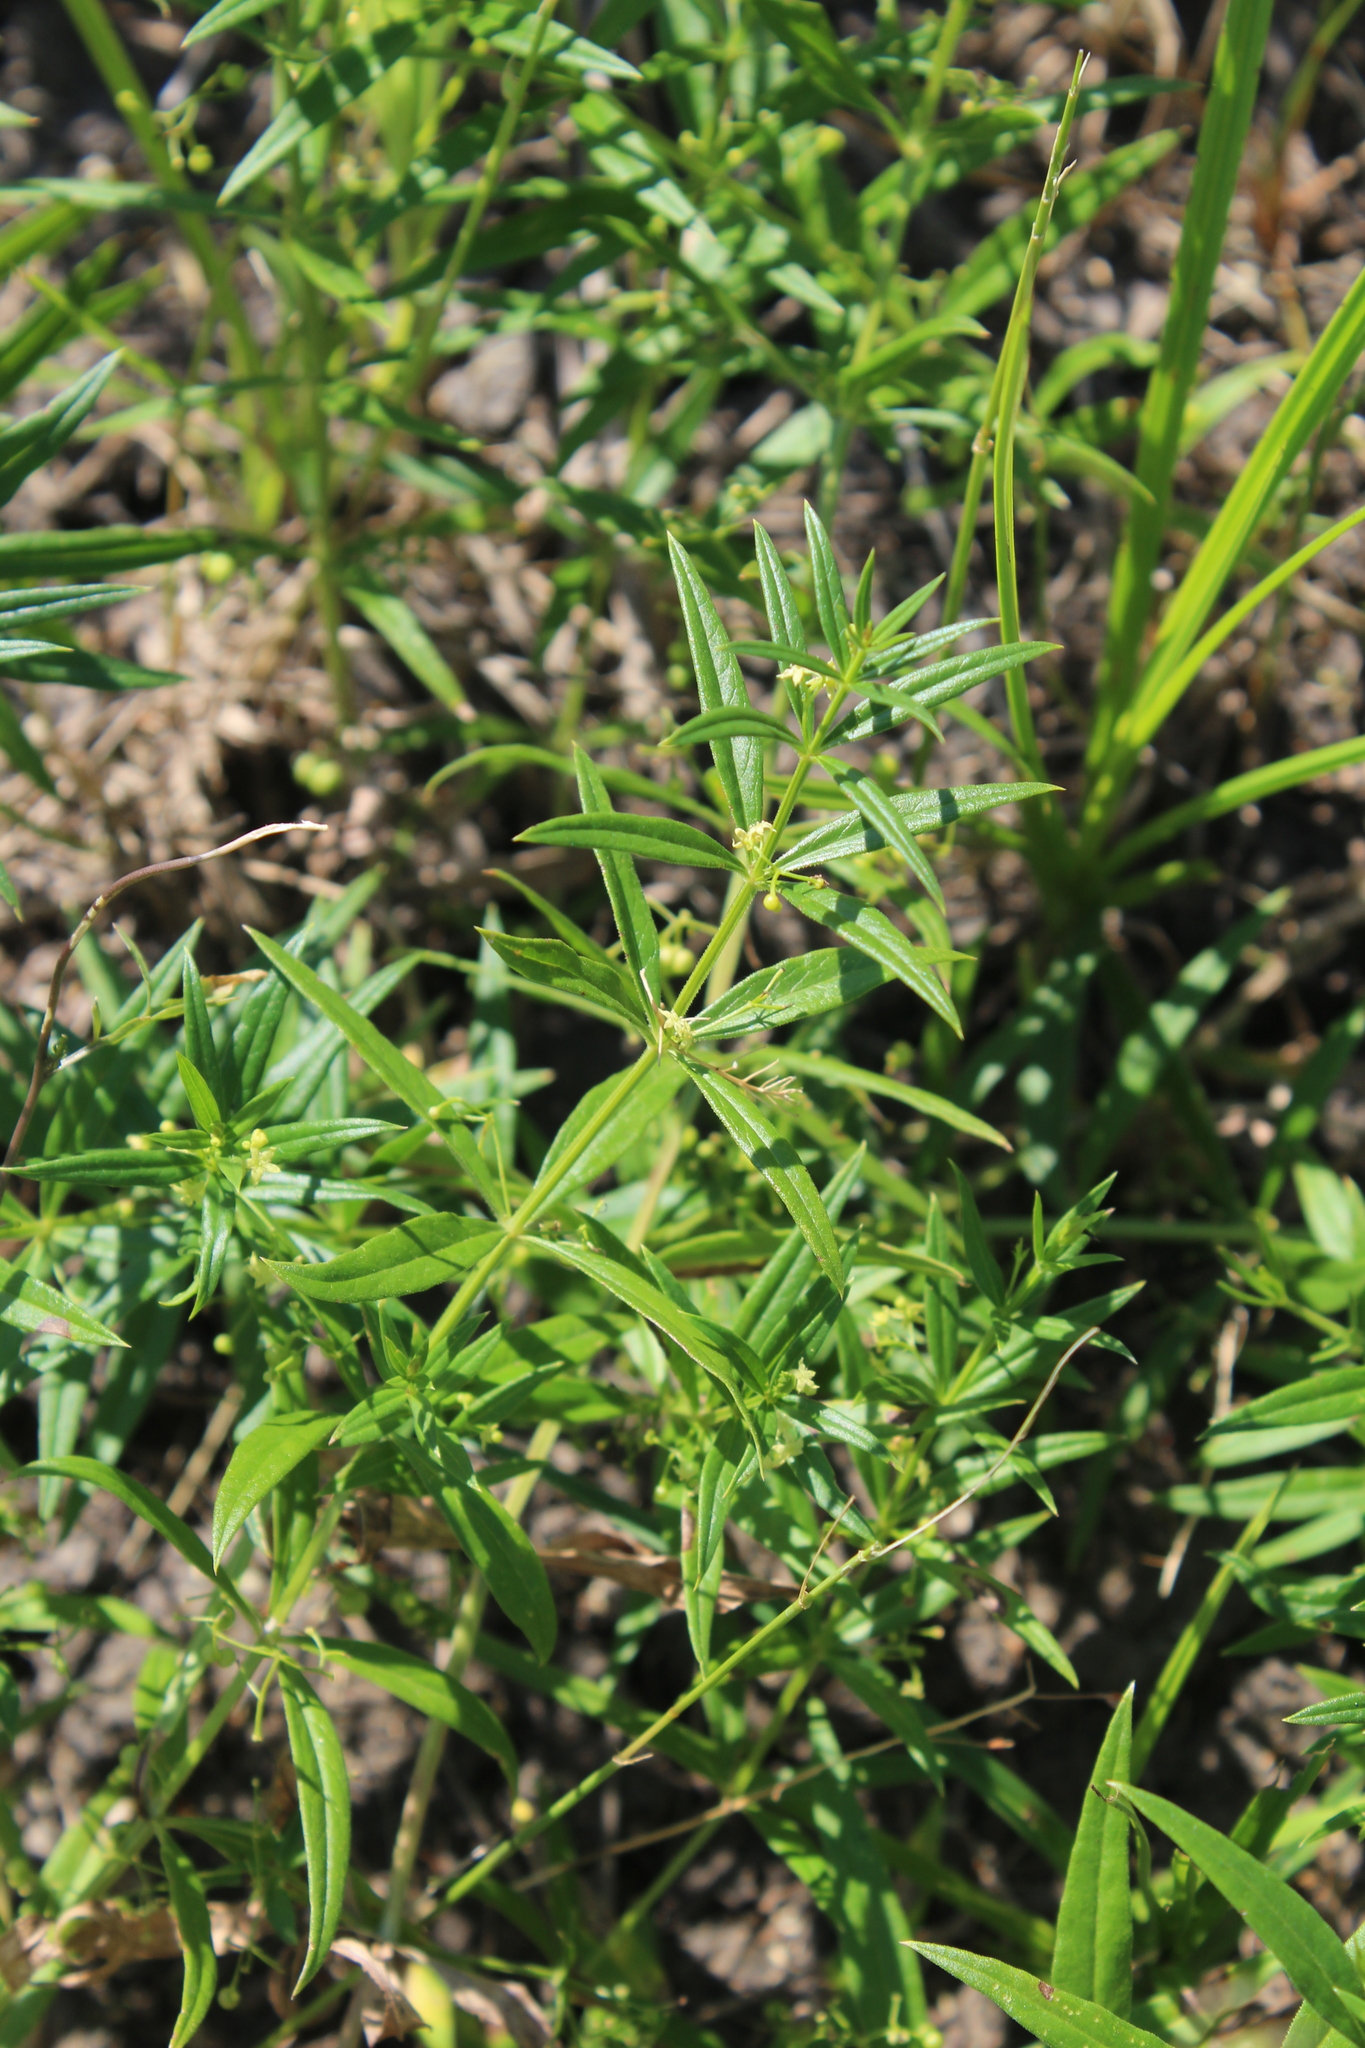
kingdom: Plantae
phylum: Tracheophyta
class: Magnoliopsida
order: Gentianales
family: Rubiaceae
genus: Rubia
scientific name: Rubia tatarica
